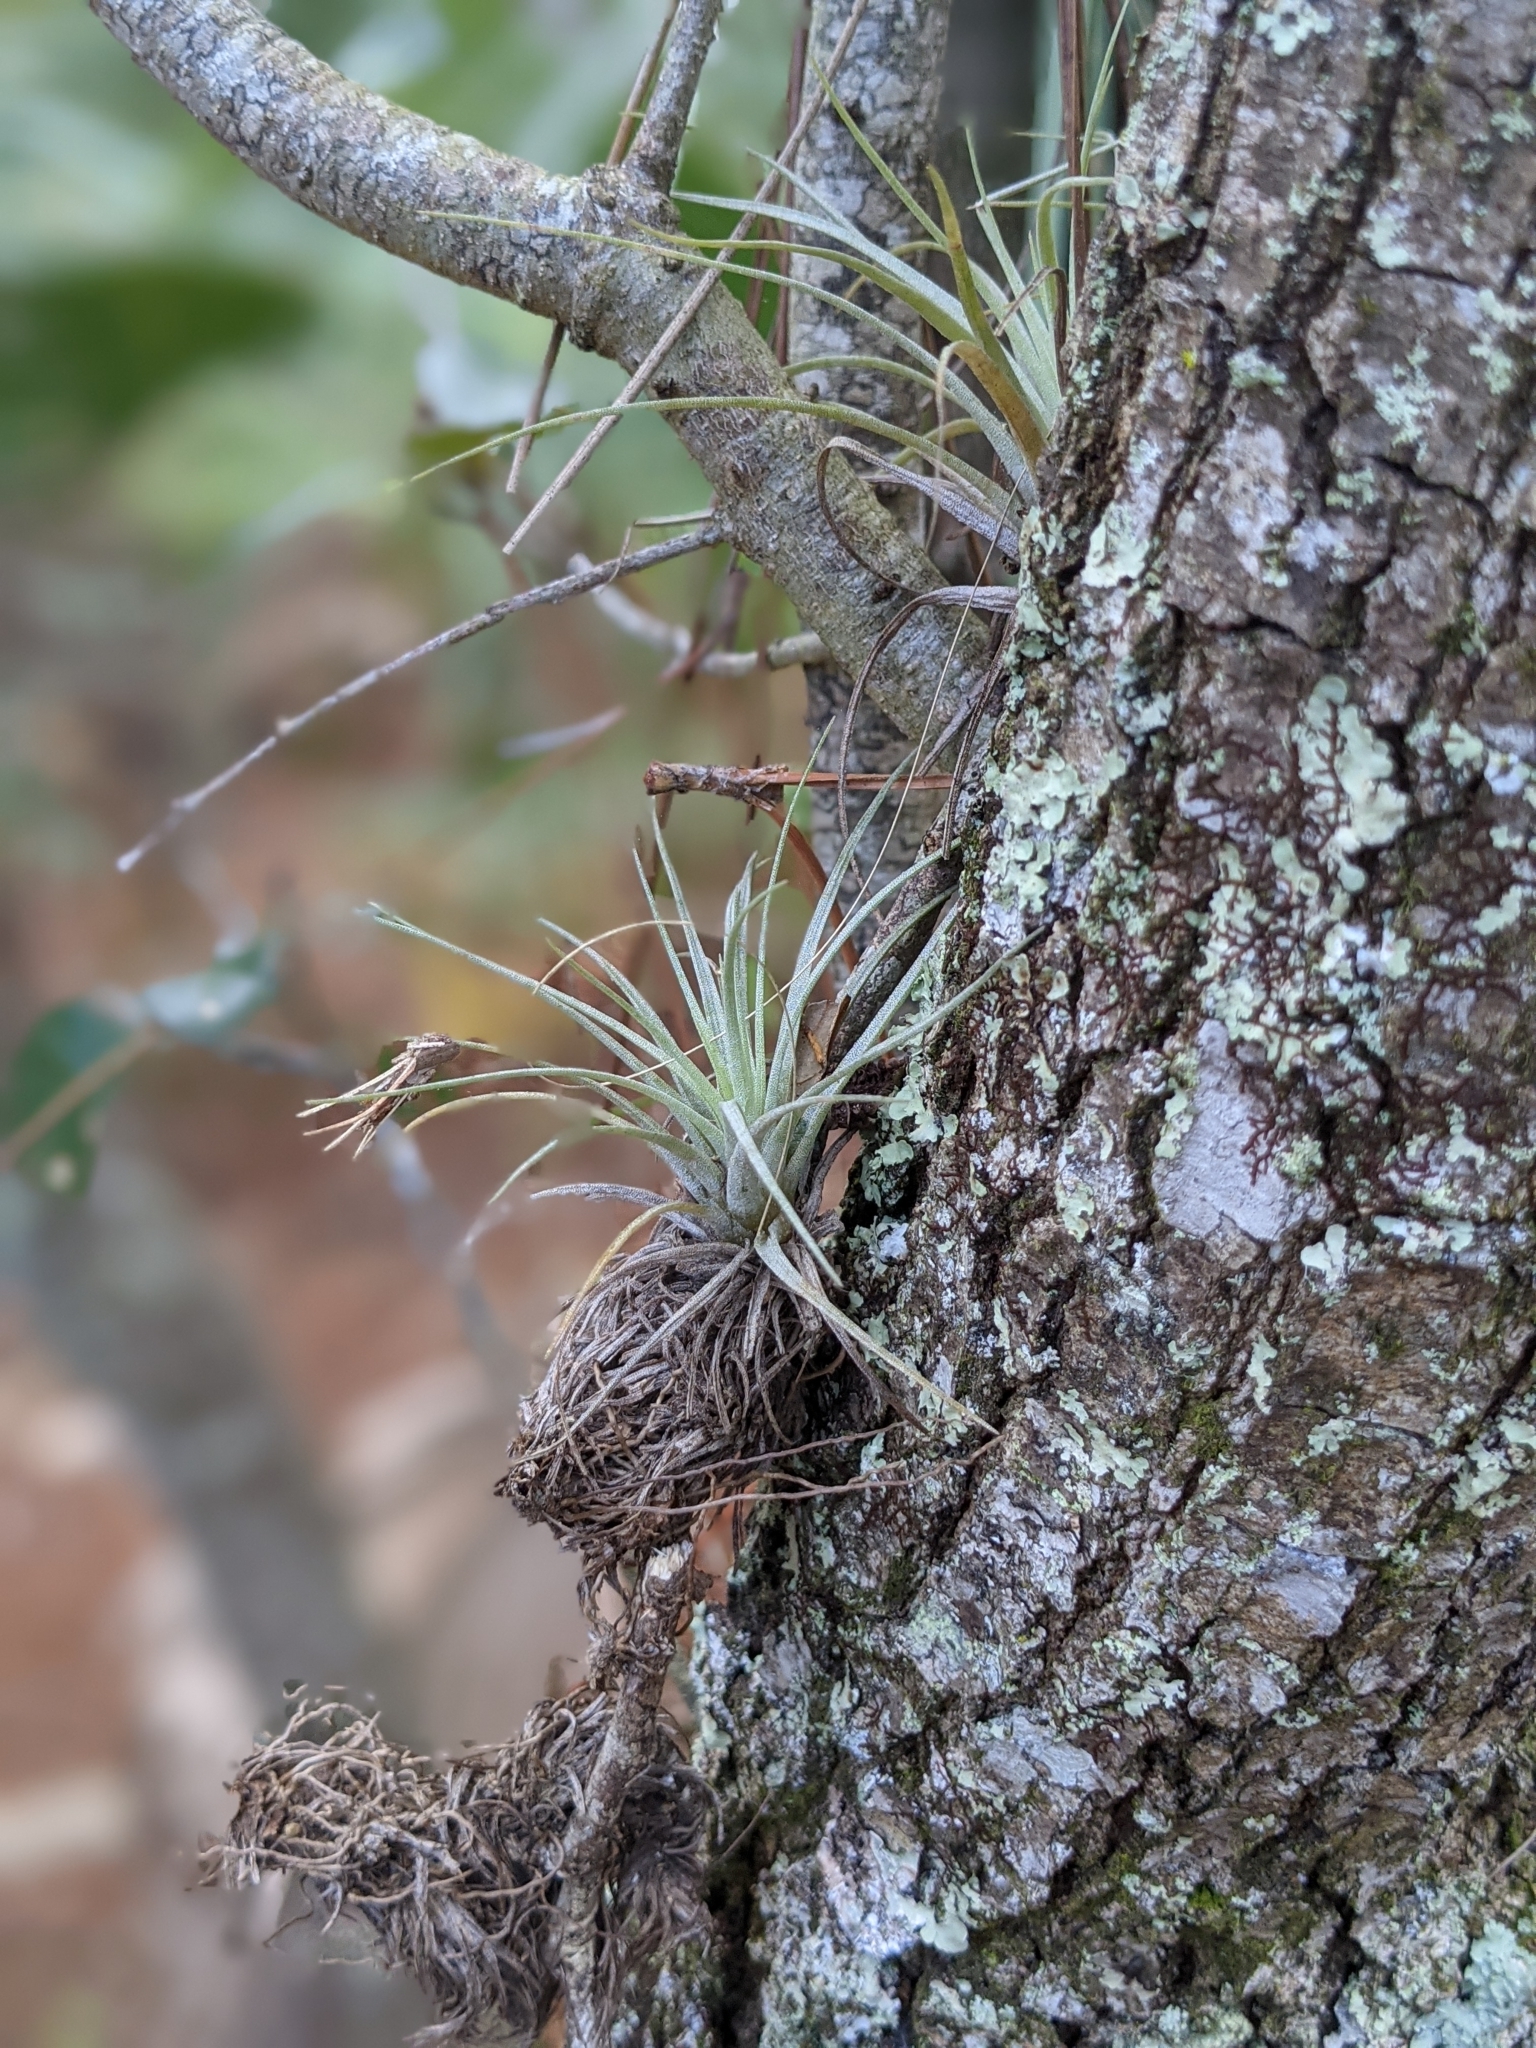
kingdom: Plantae
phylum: Tracheophyta
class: Liliopsida
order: Poales
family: Bromeliaceae
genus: Tillandsia
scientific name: Tillandsia fasciculata
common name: Giant airplant
